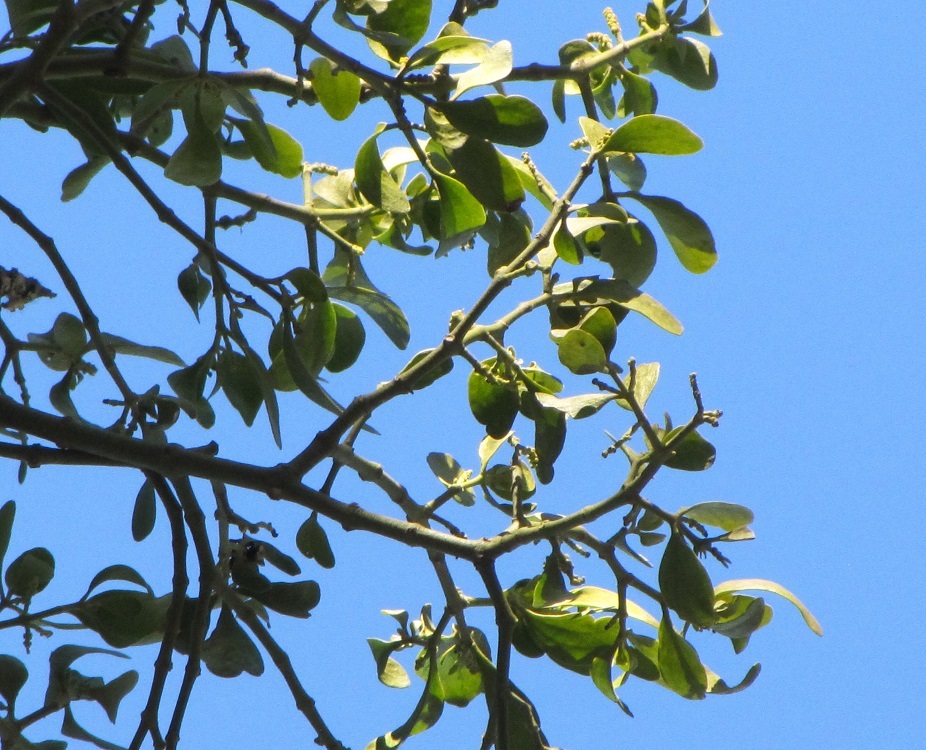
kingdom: Plantae
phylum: Tracheophyta
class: Magnoliopsida
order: Santalales
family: Viscaceae
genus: Phoradendron
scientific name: Phoradendron leucarpum
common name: Pacific mistletoe
